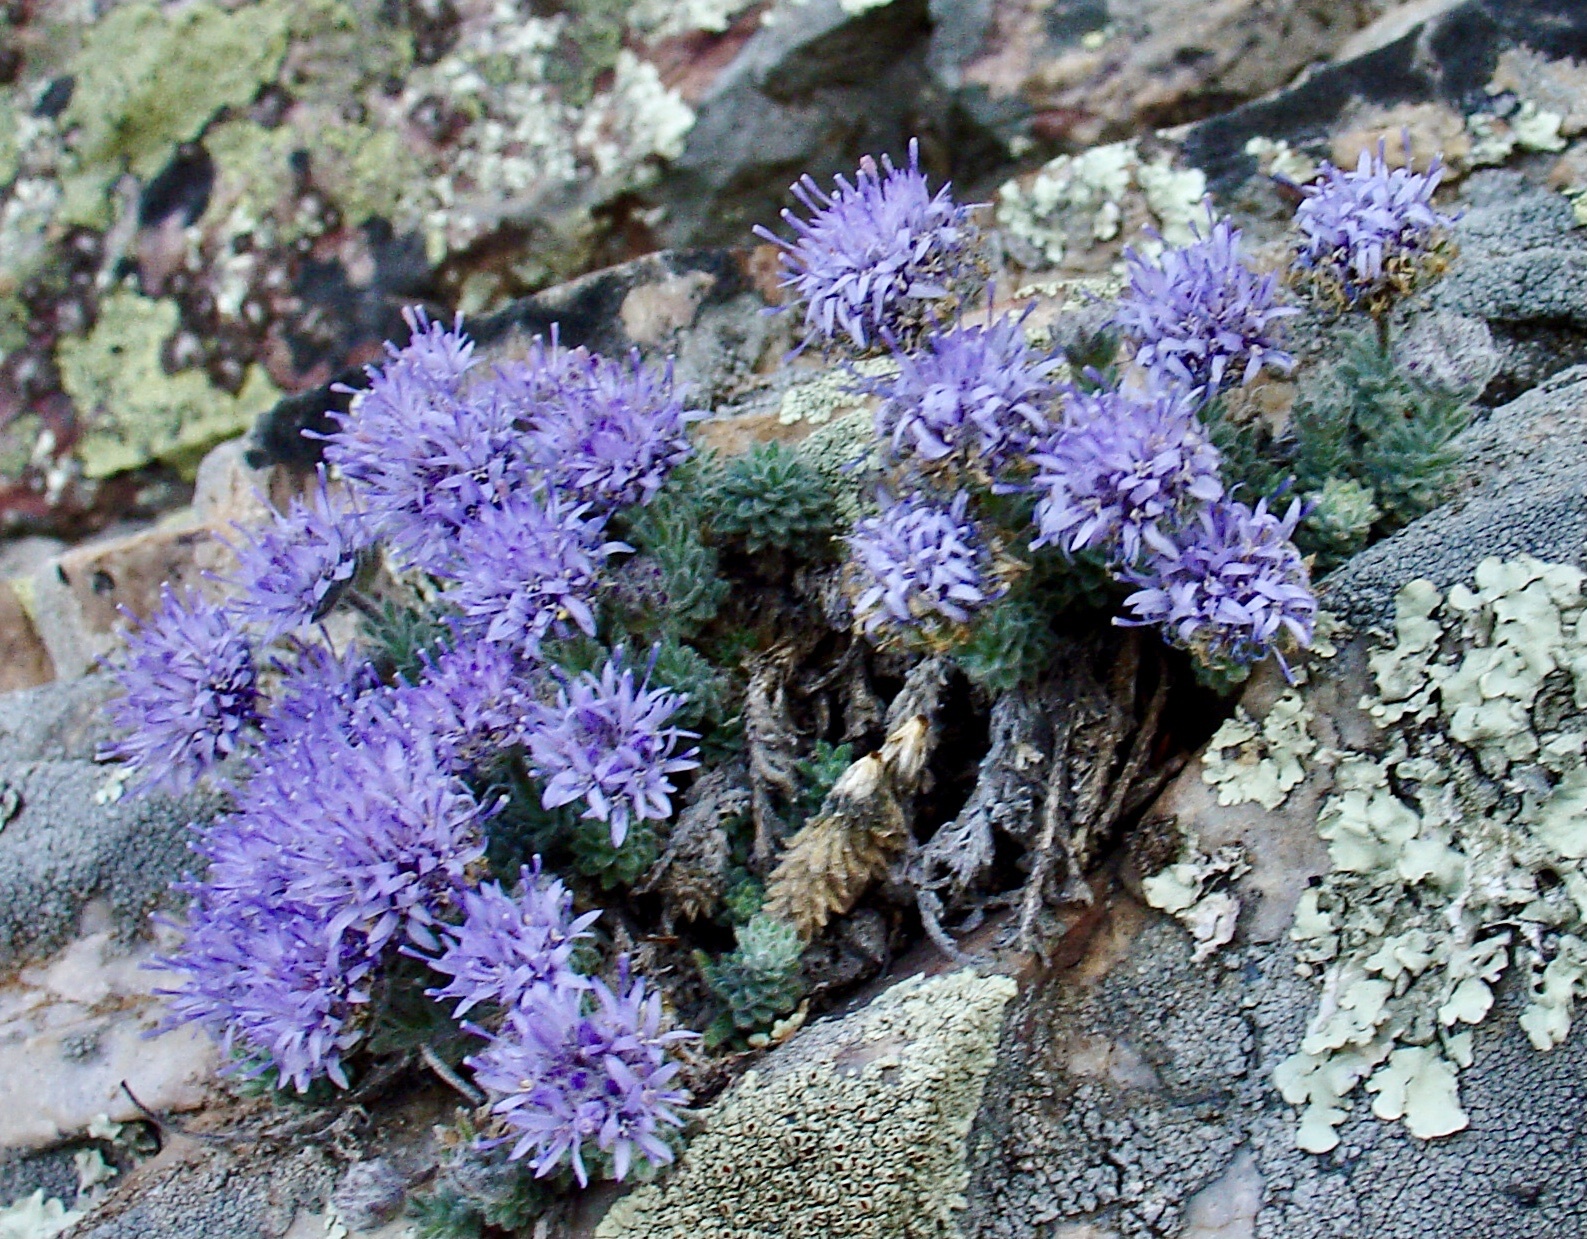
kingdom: Plantae
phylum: Tracheophyta
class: Magnoliopsida
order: Asterales
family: Campanulaceae
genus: Jasione
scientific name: Jasione crispa
